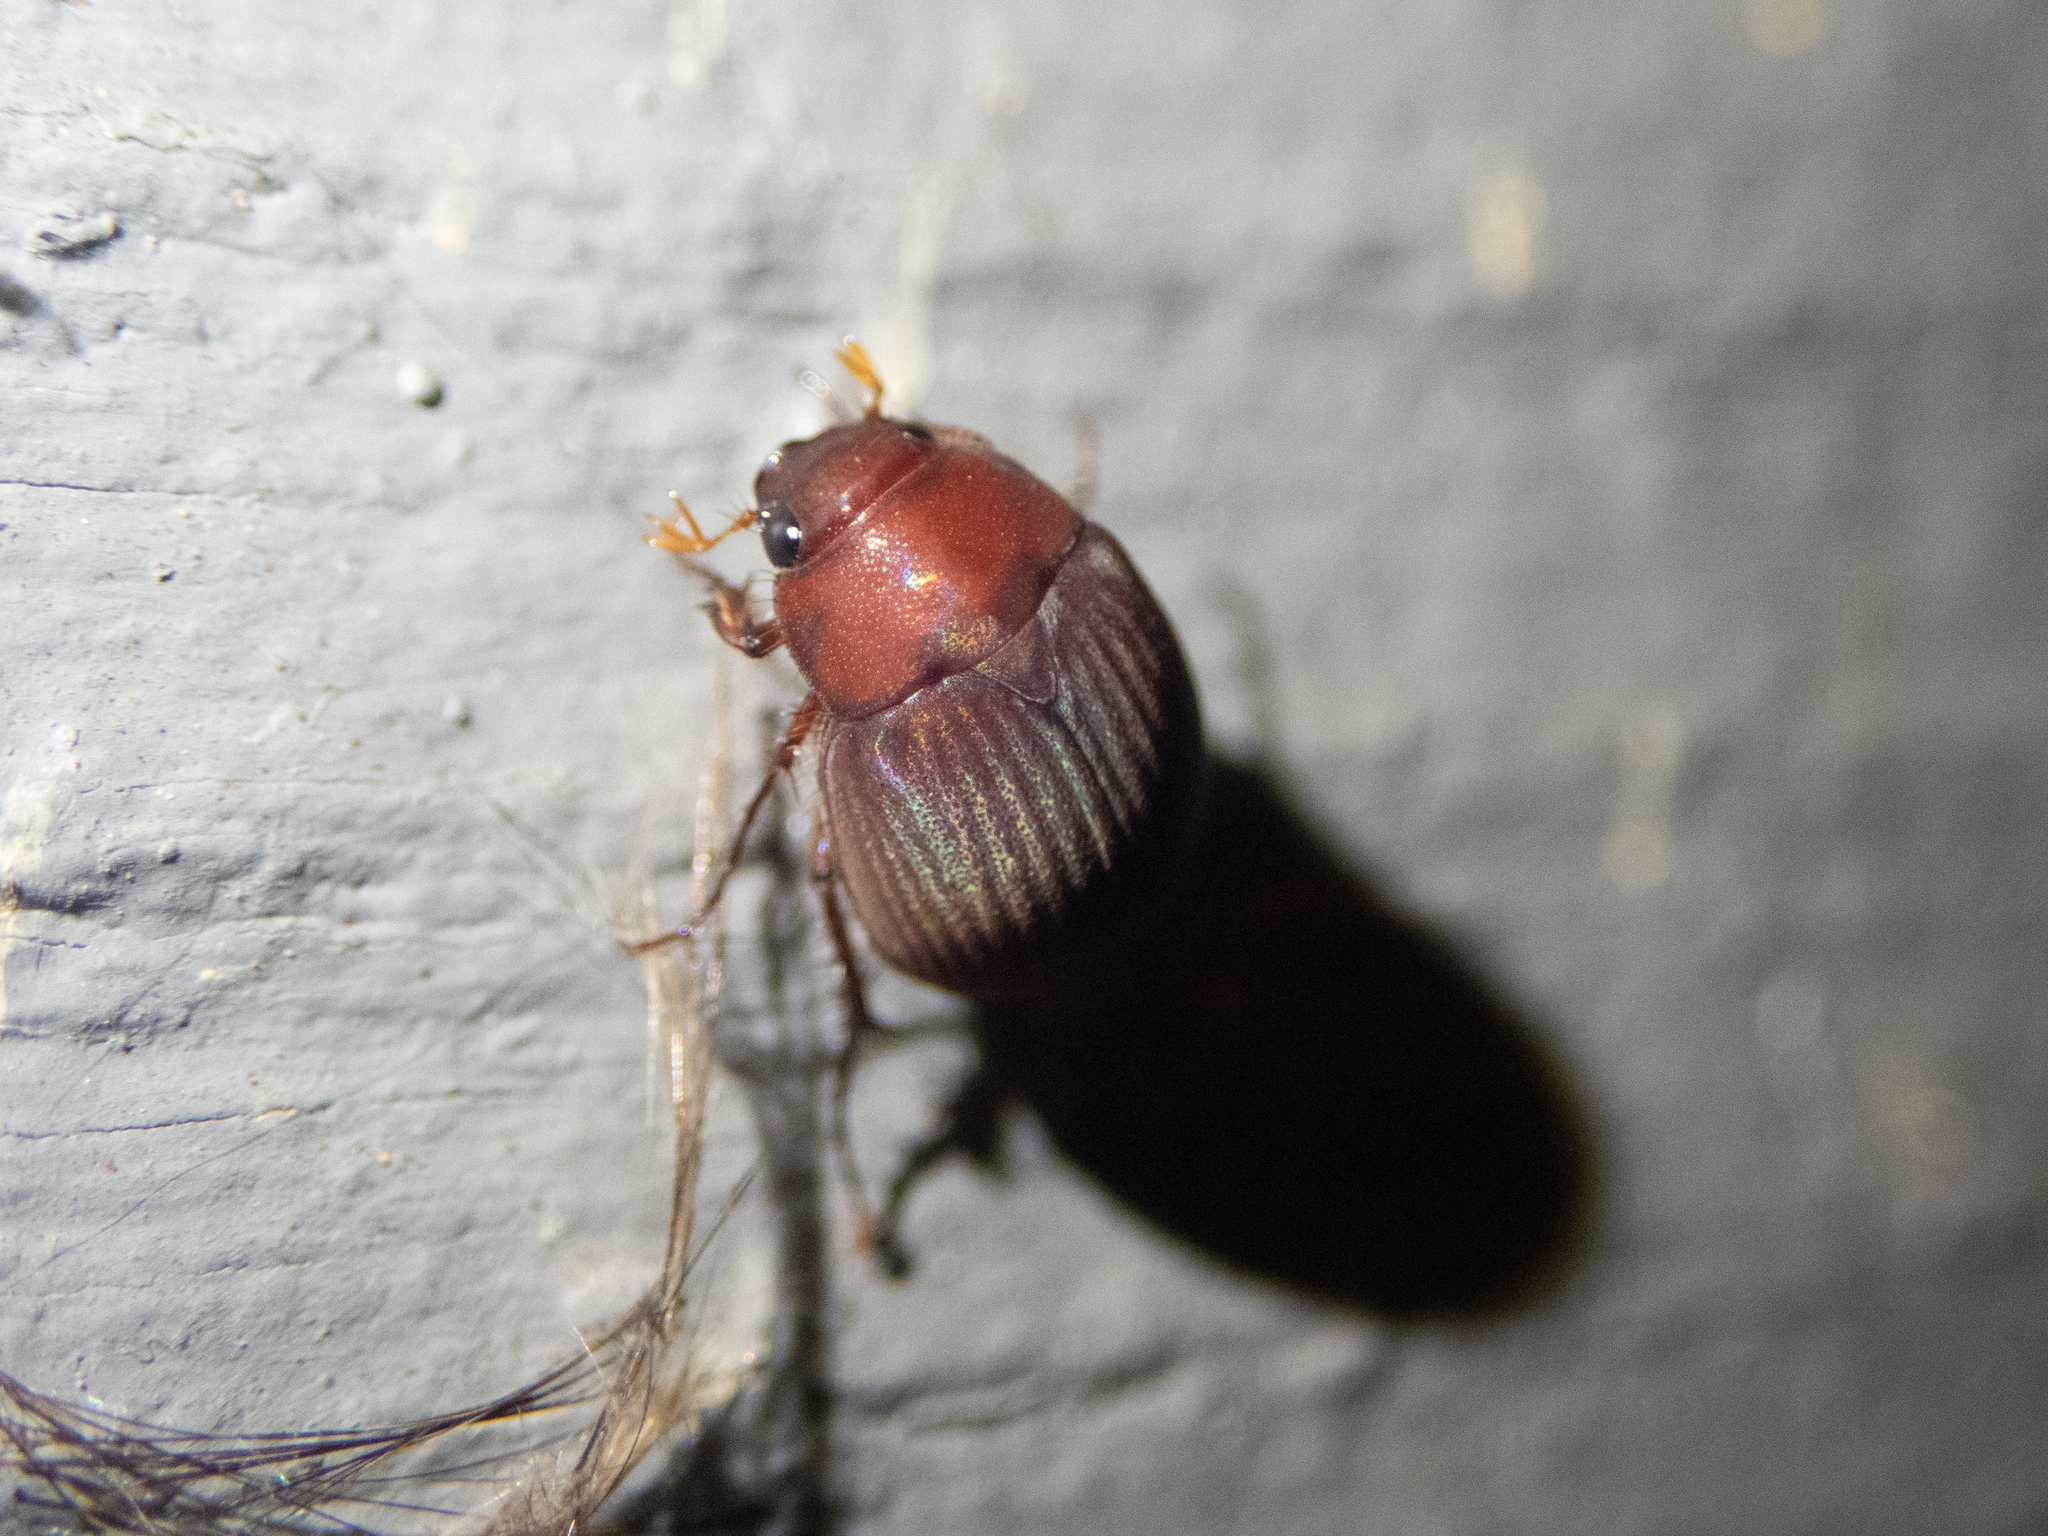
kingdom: Animalia
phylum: Arthropoda
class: Insecta
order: Coleoptera
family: Scarabaeidae
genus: Maladera
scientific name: Maladera formosae
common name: Asiatic garden beetle
